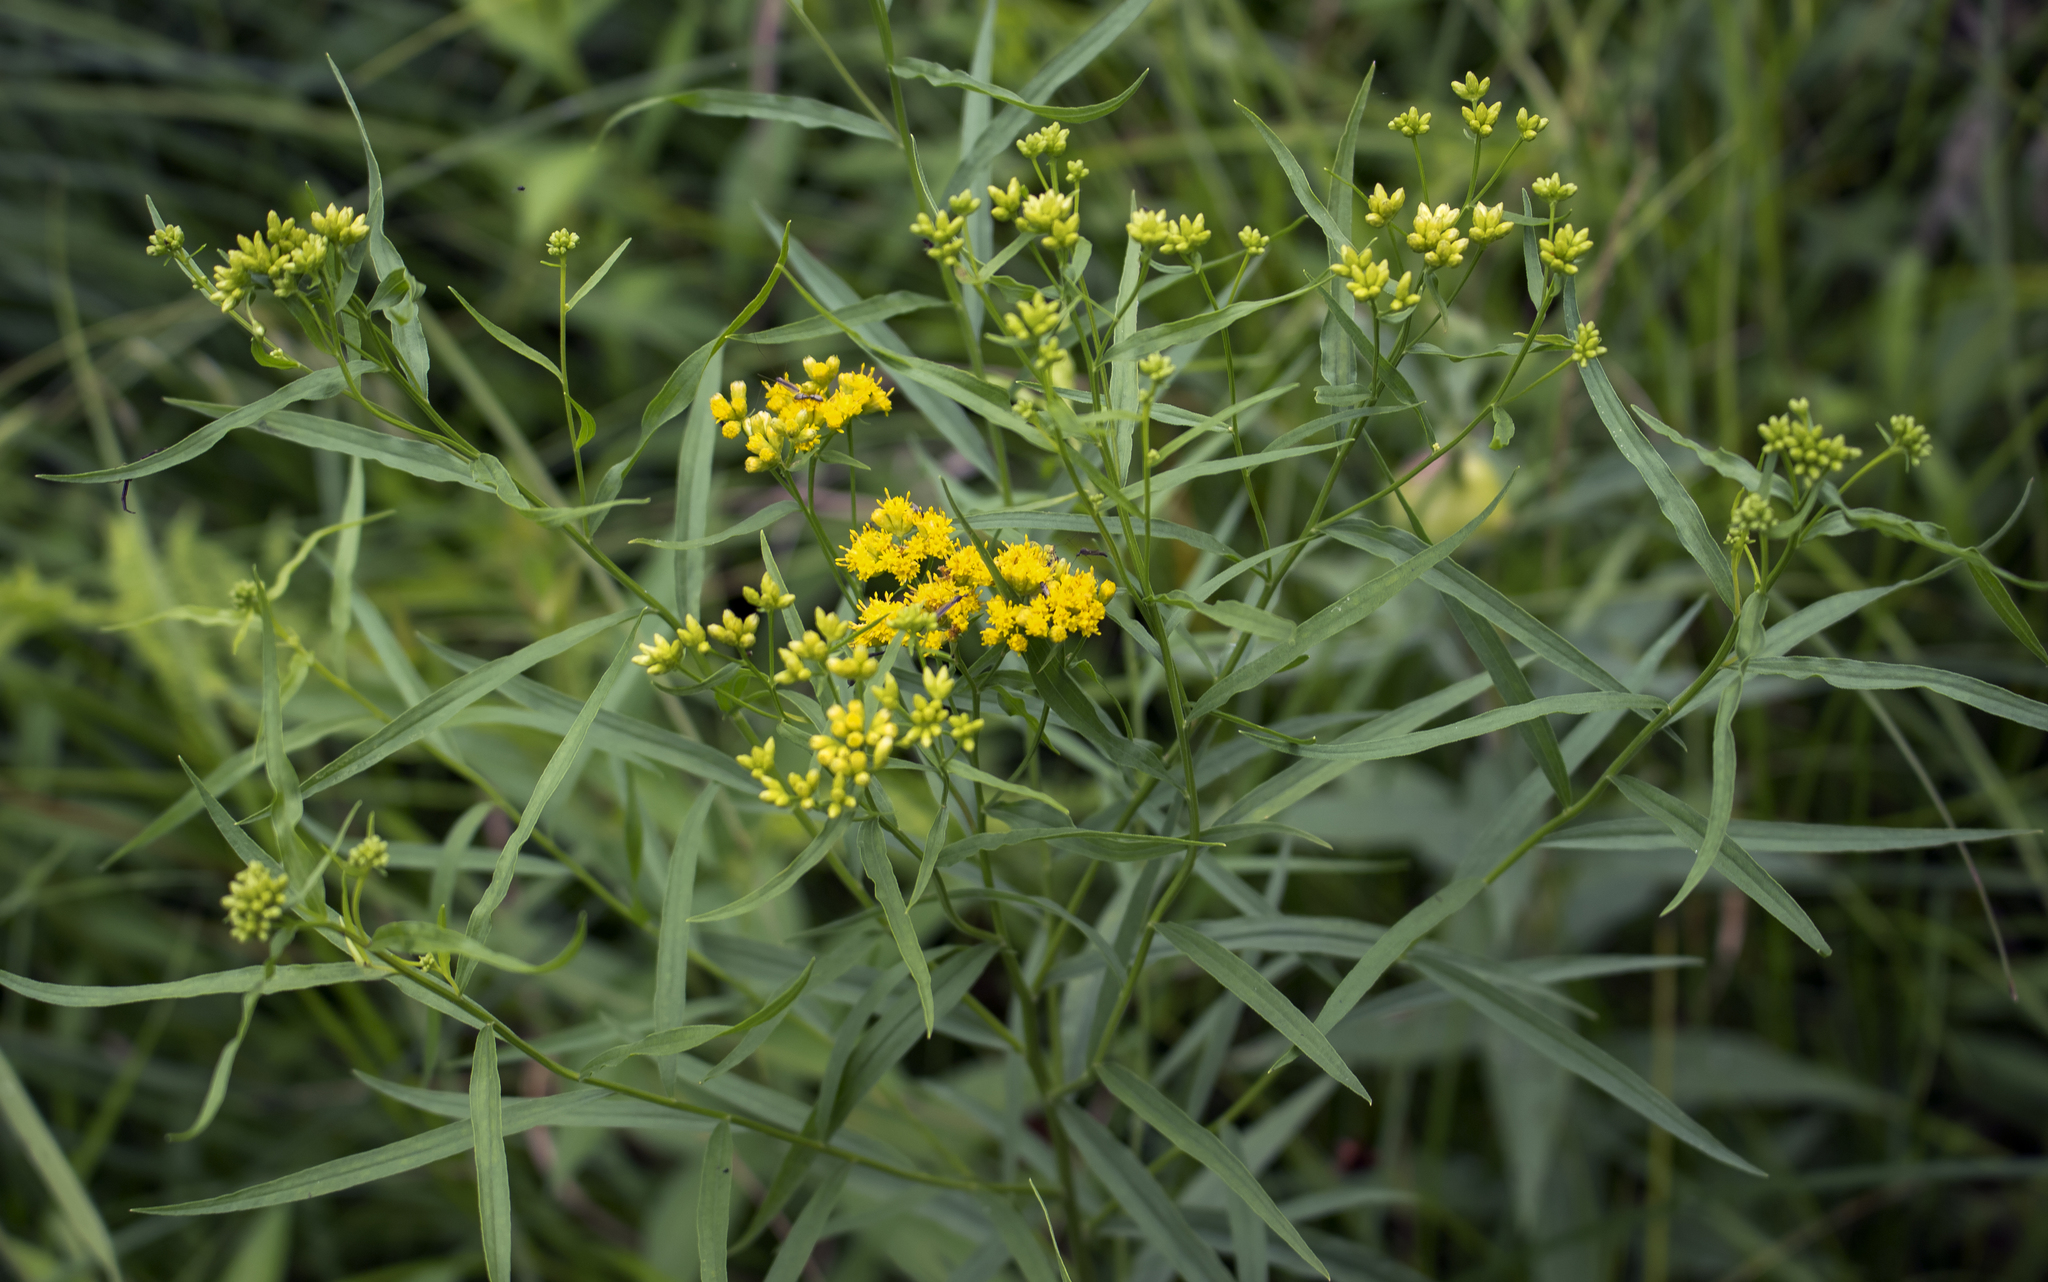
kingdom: Plantae
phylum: Tracheophyta
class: Magnoliopsida
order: Asterales
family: Asteraceae
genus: Euthamia
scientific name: Euthamia graminifolia
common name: Common goldentop
